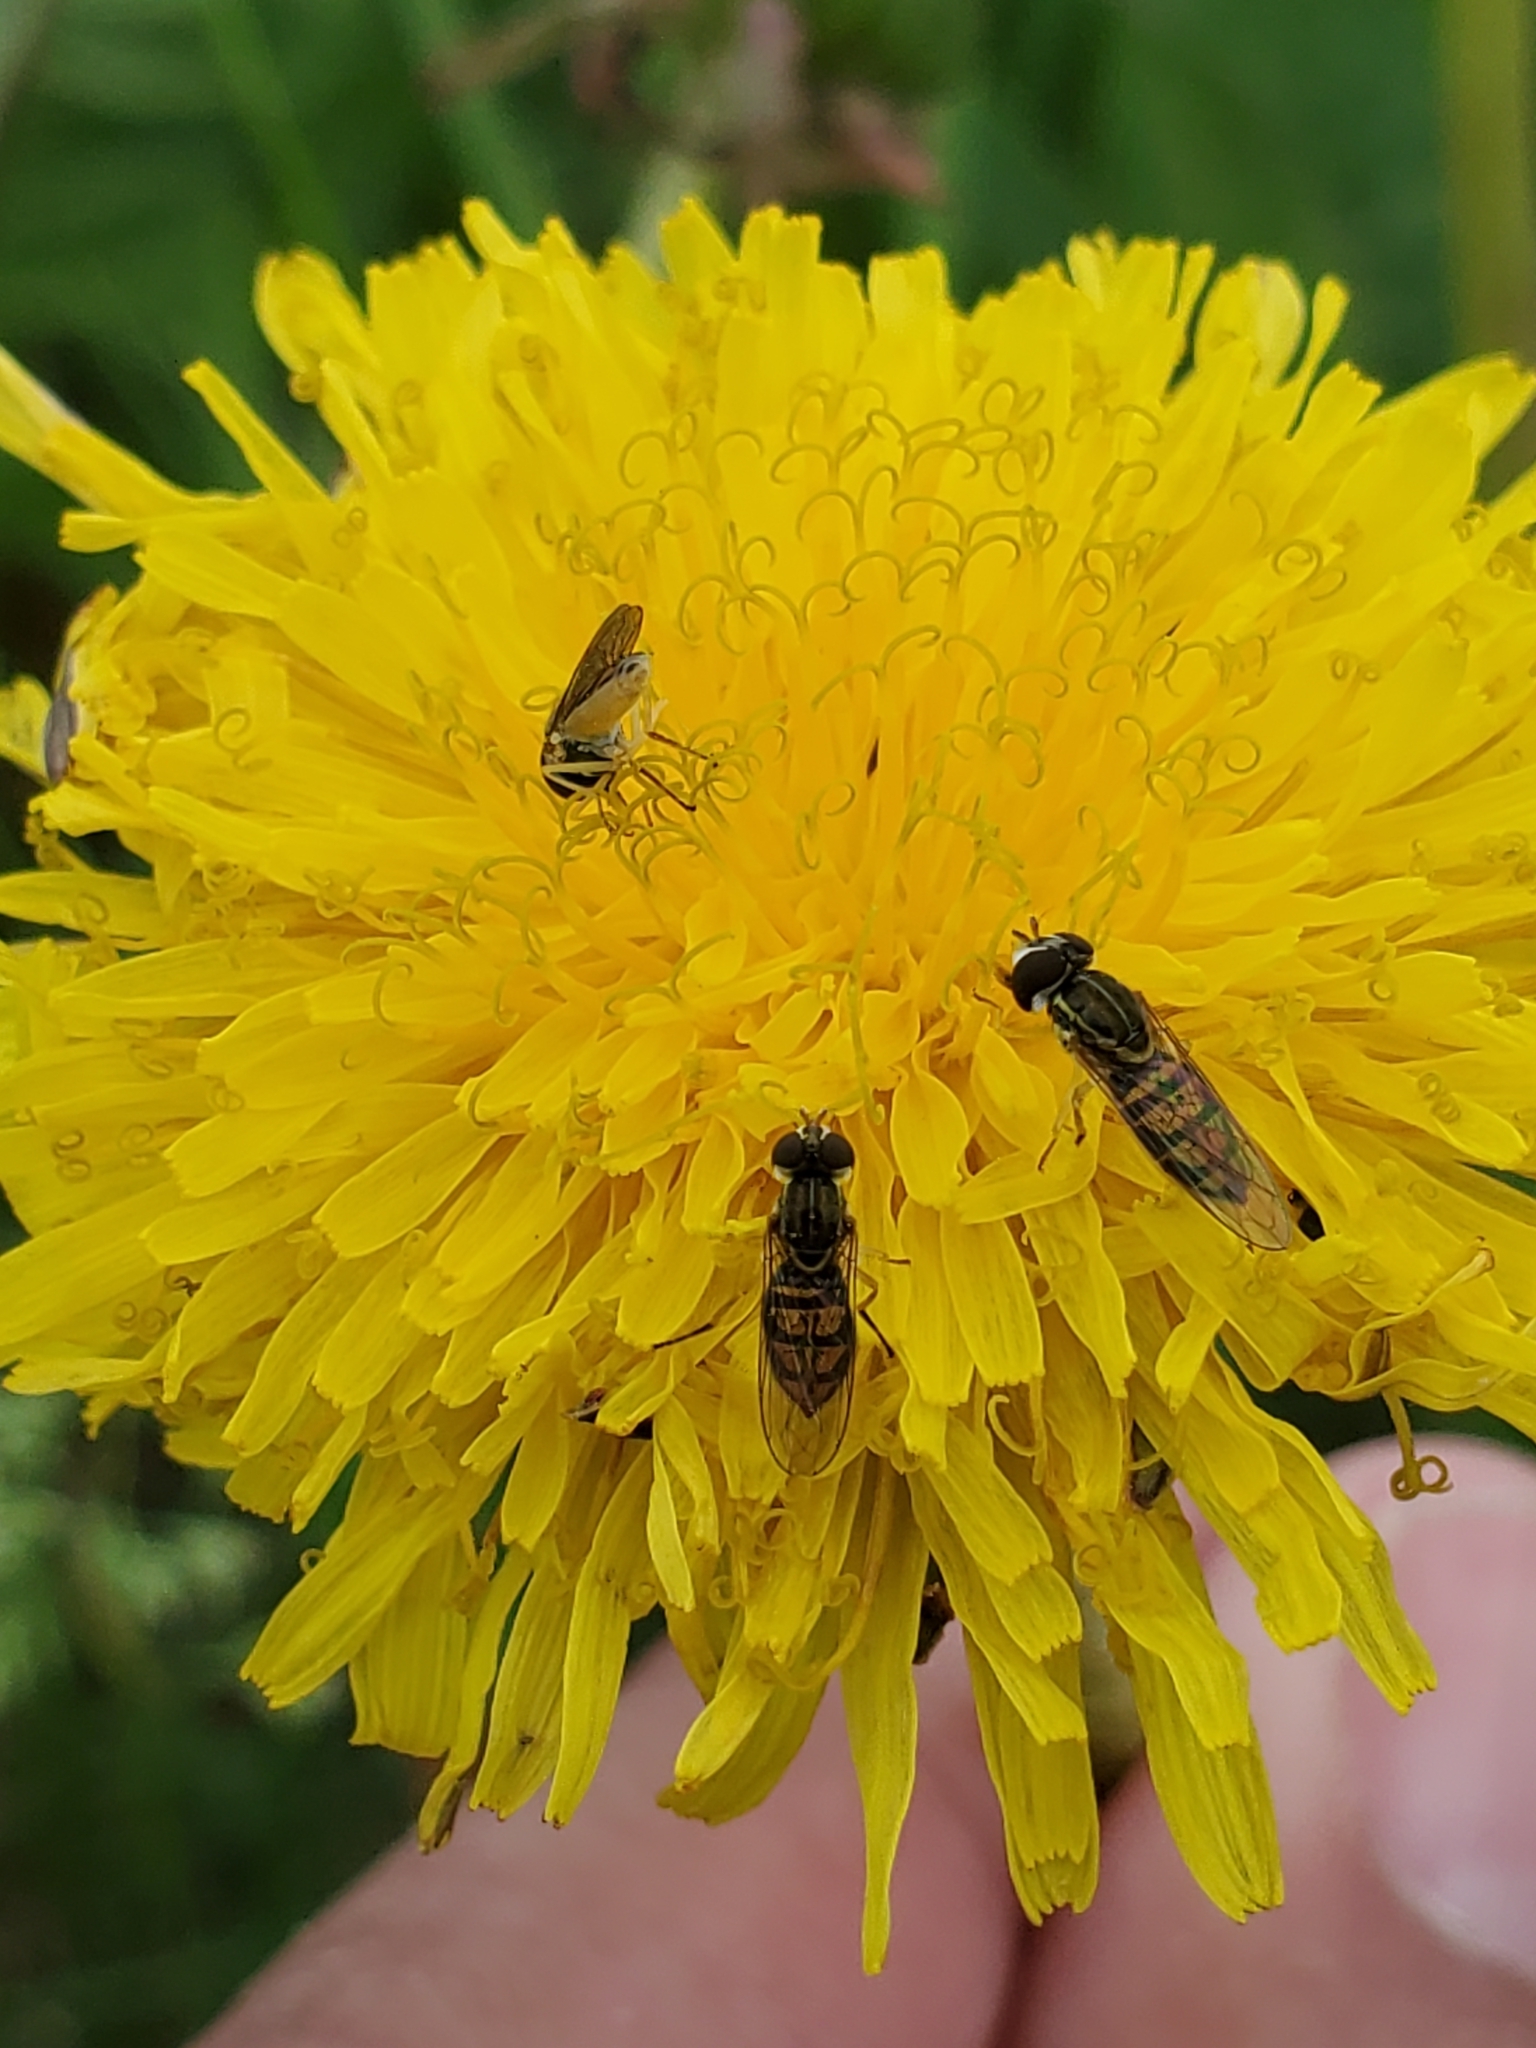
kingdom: Animalia
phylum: Arthropoda
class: Insecta
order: Diptera
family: Syrphidae
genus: Toxomerus
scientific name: Toxomerus marginatus
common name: Syrphid fly
